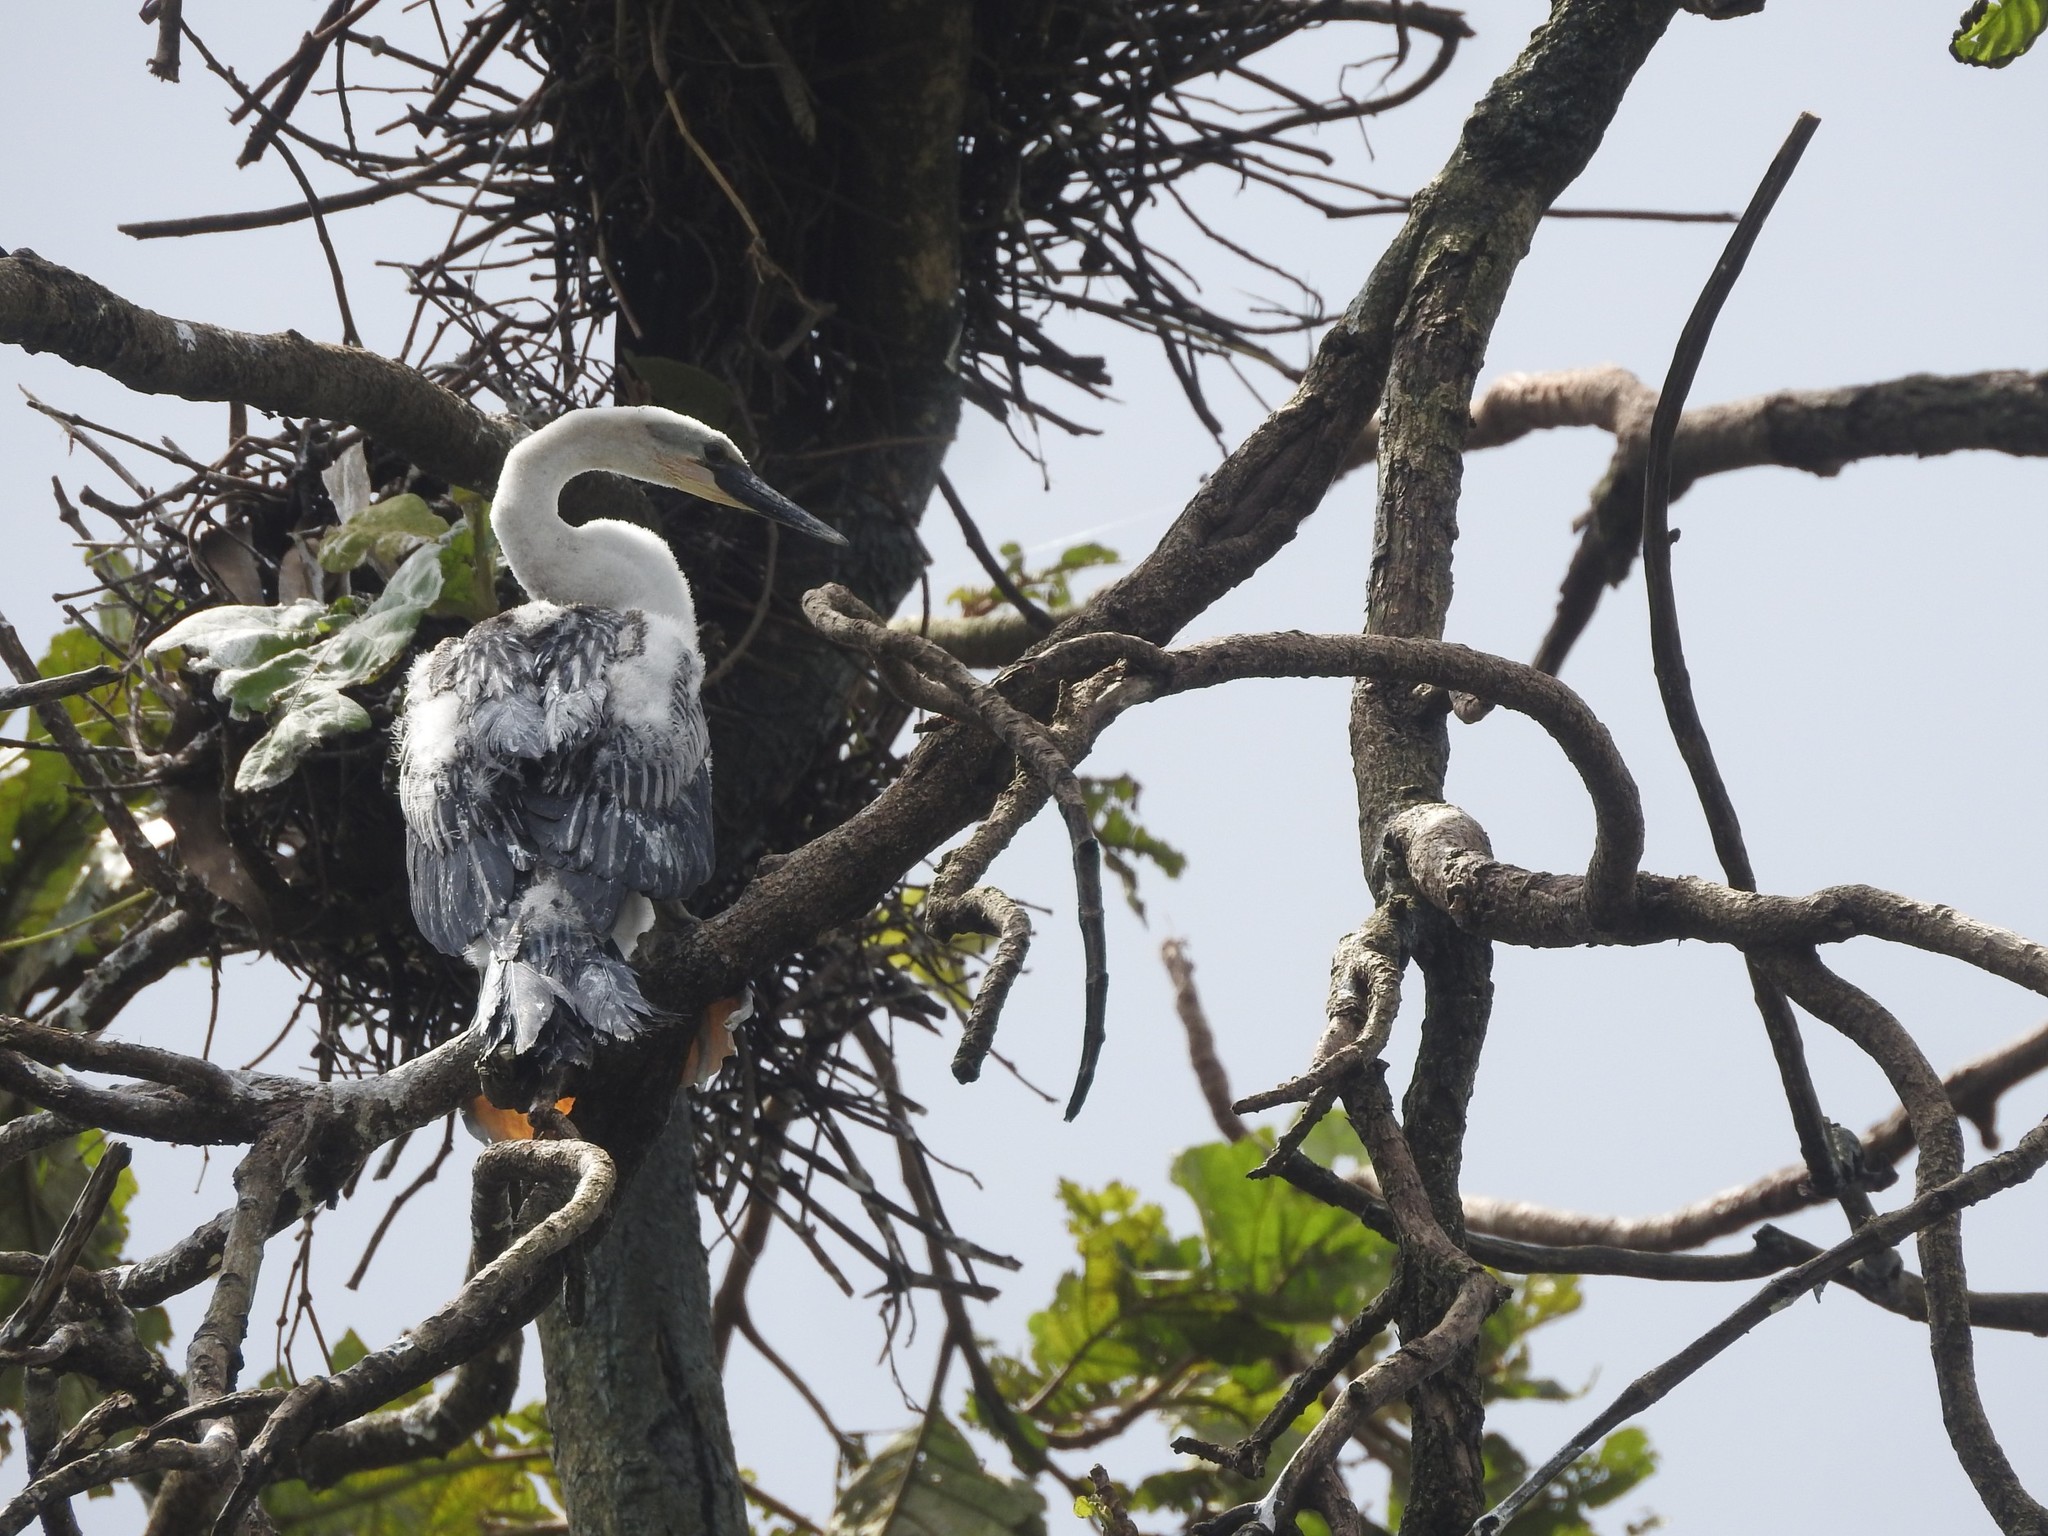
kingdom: Animalia
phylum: Chordata
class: Aves
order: Suliformes
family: Anhingidae
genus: Anhinga
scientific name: Anhinga melanogaster
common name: Oriental darter
